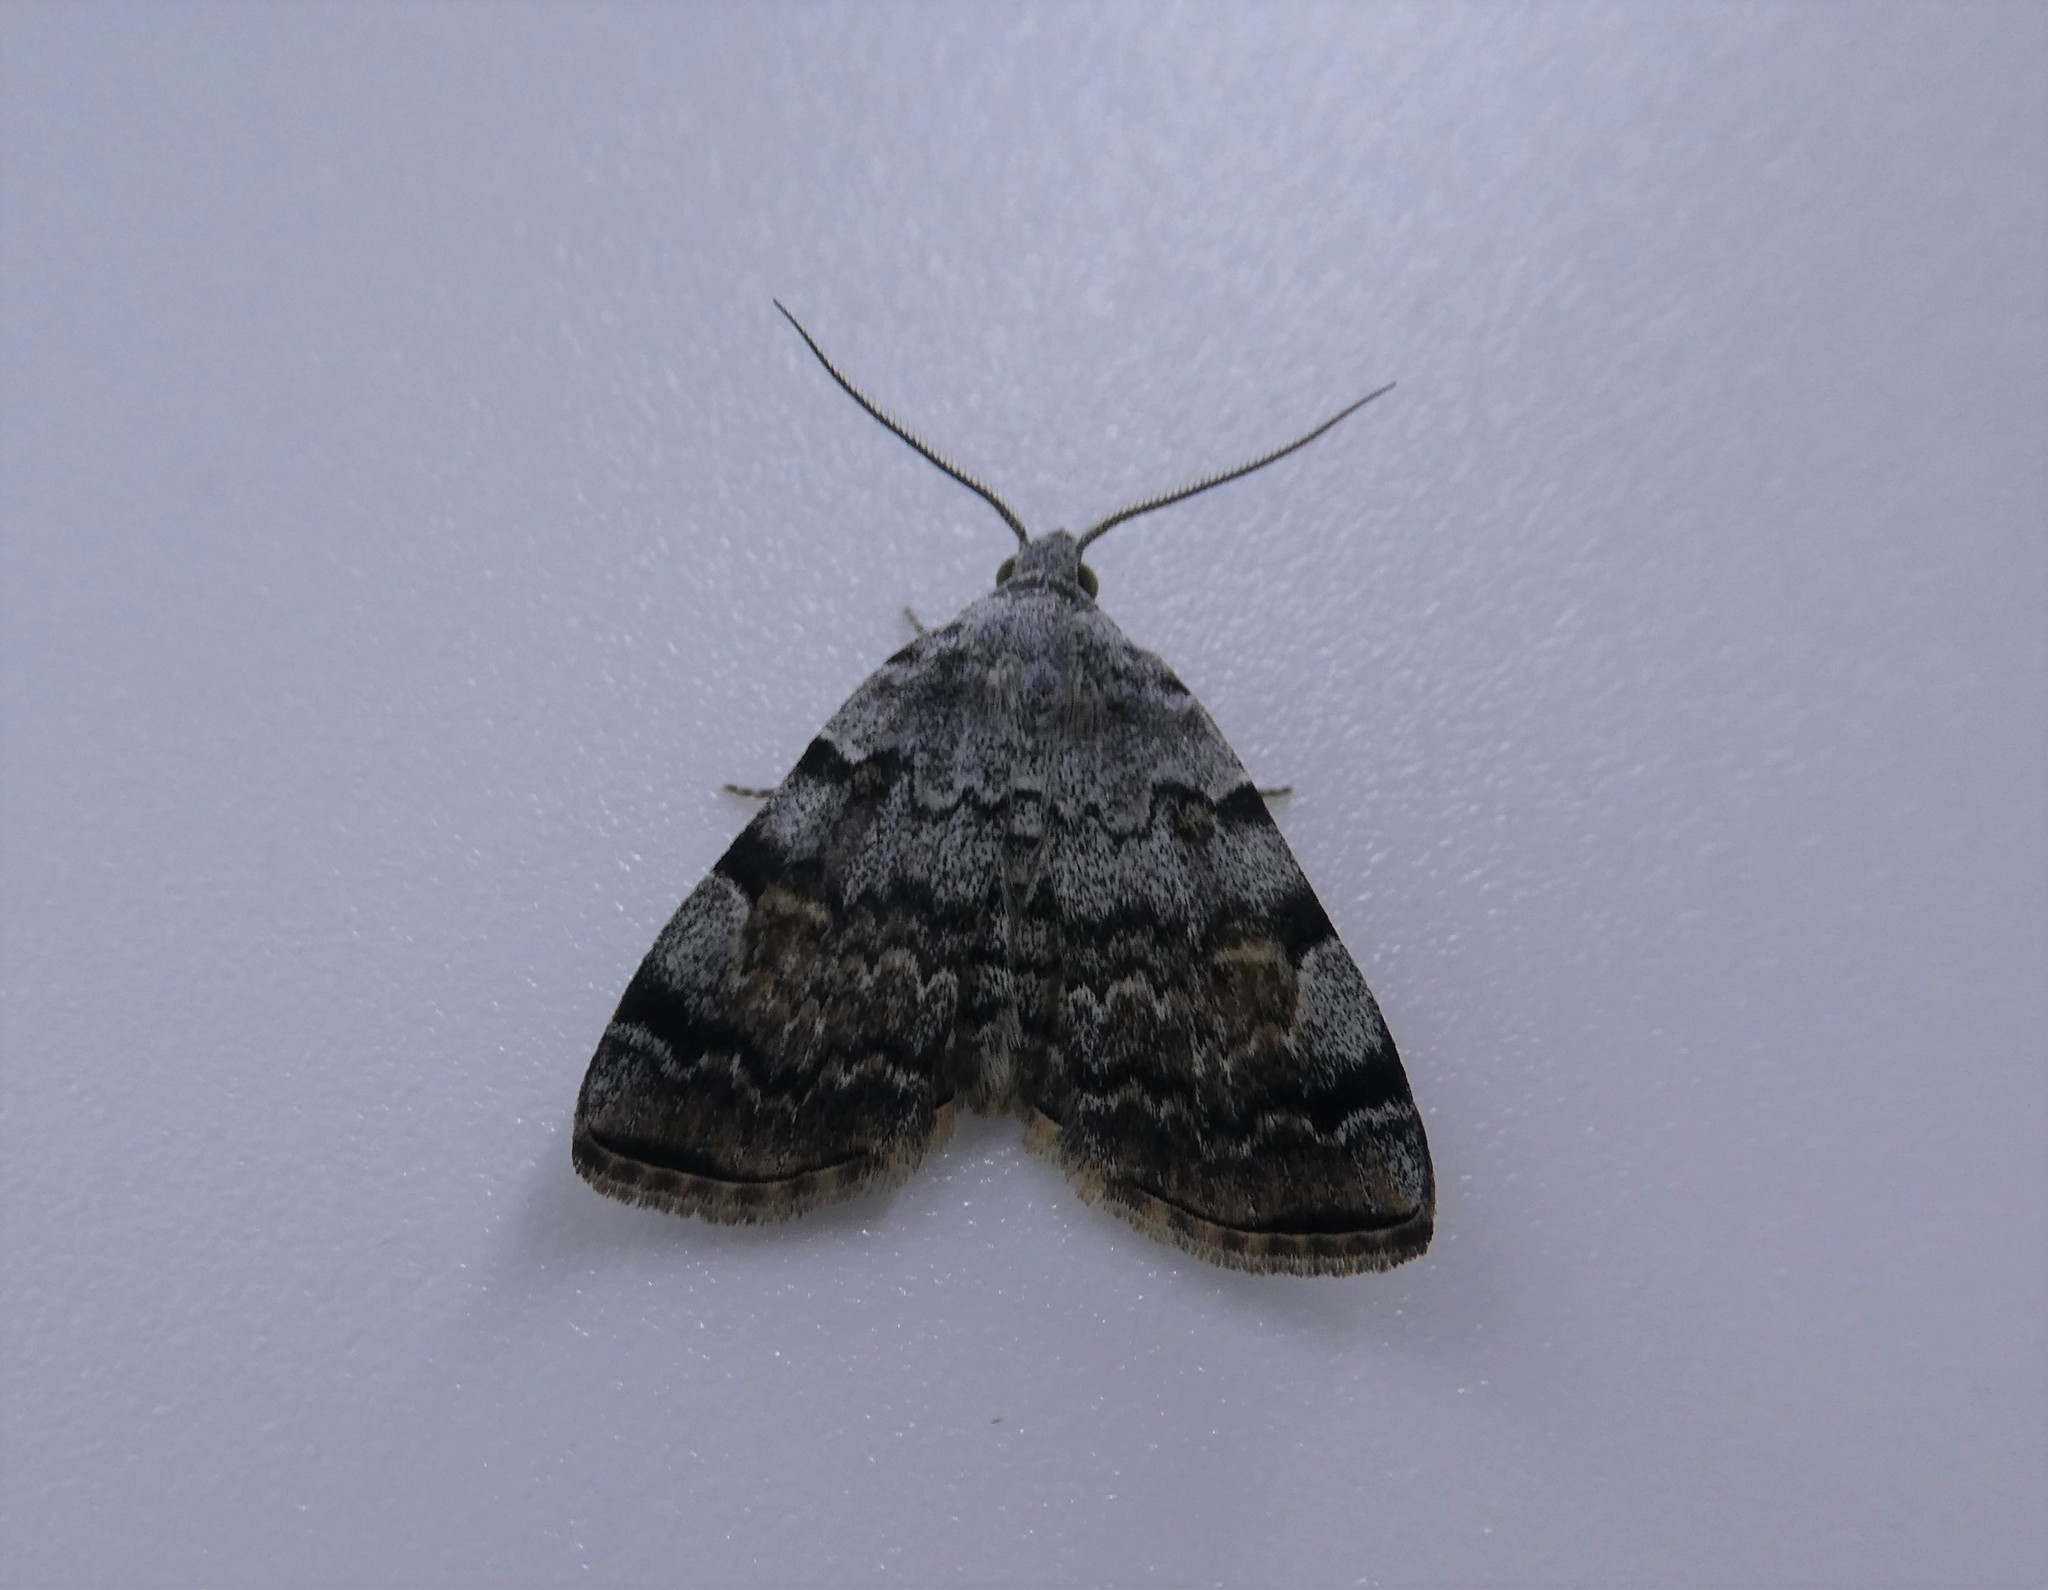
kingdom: Animalia
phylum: Arthropoda
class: Insecta
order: Lepidoptera
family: Erebidae
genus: Idia
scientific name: Idia americalis
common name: American idia moth
